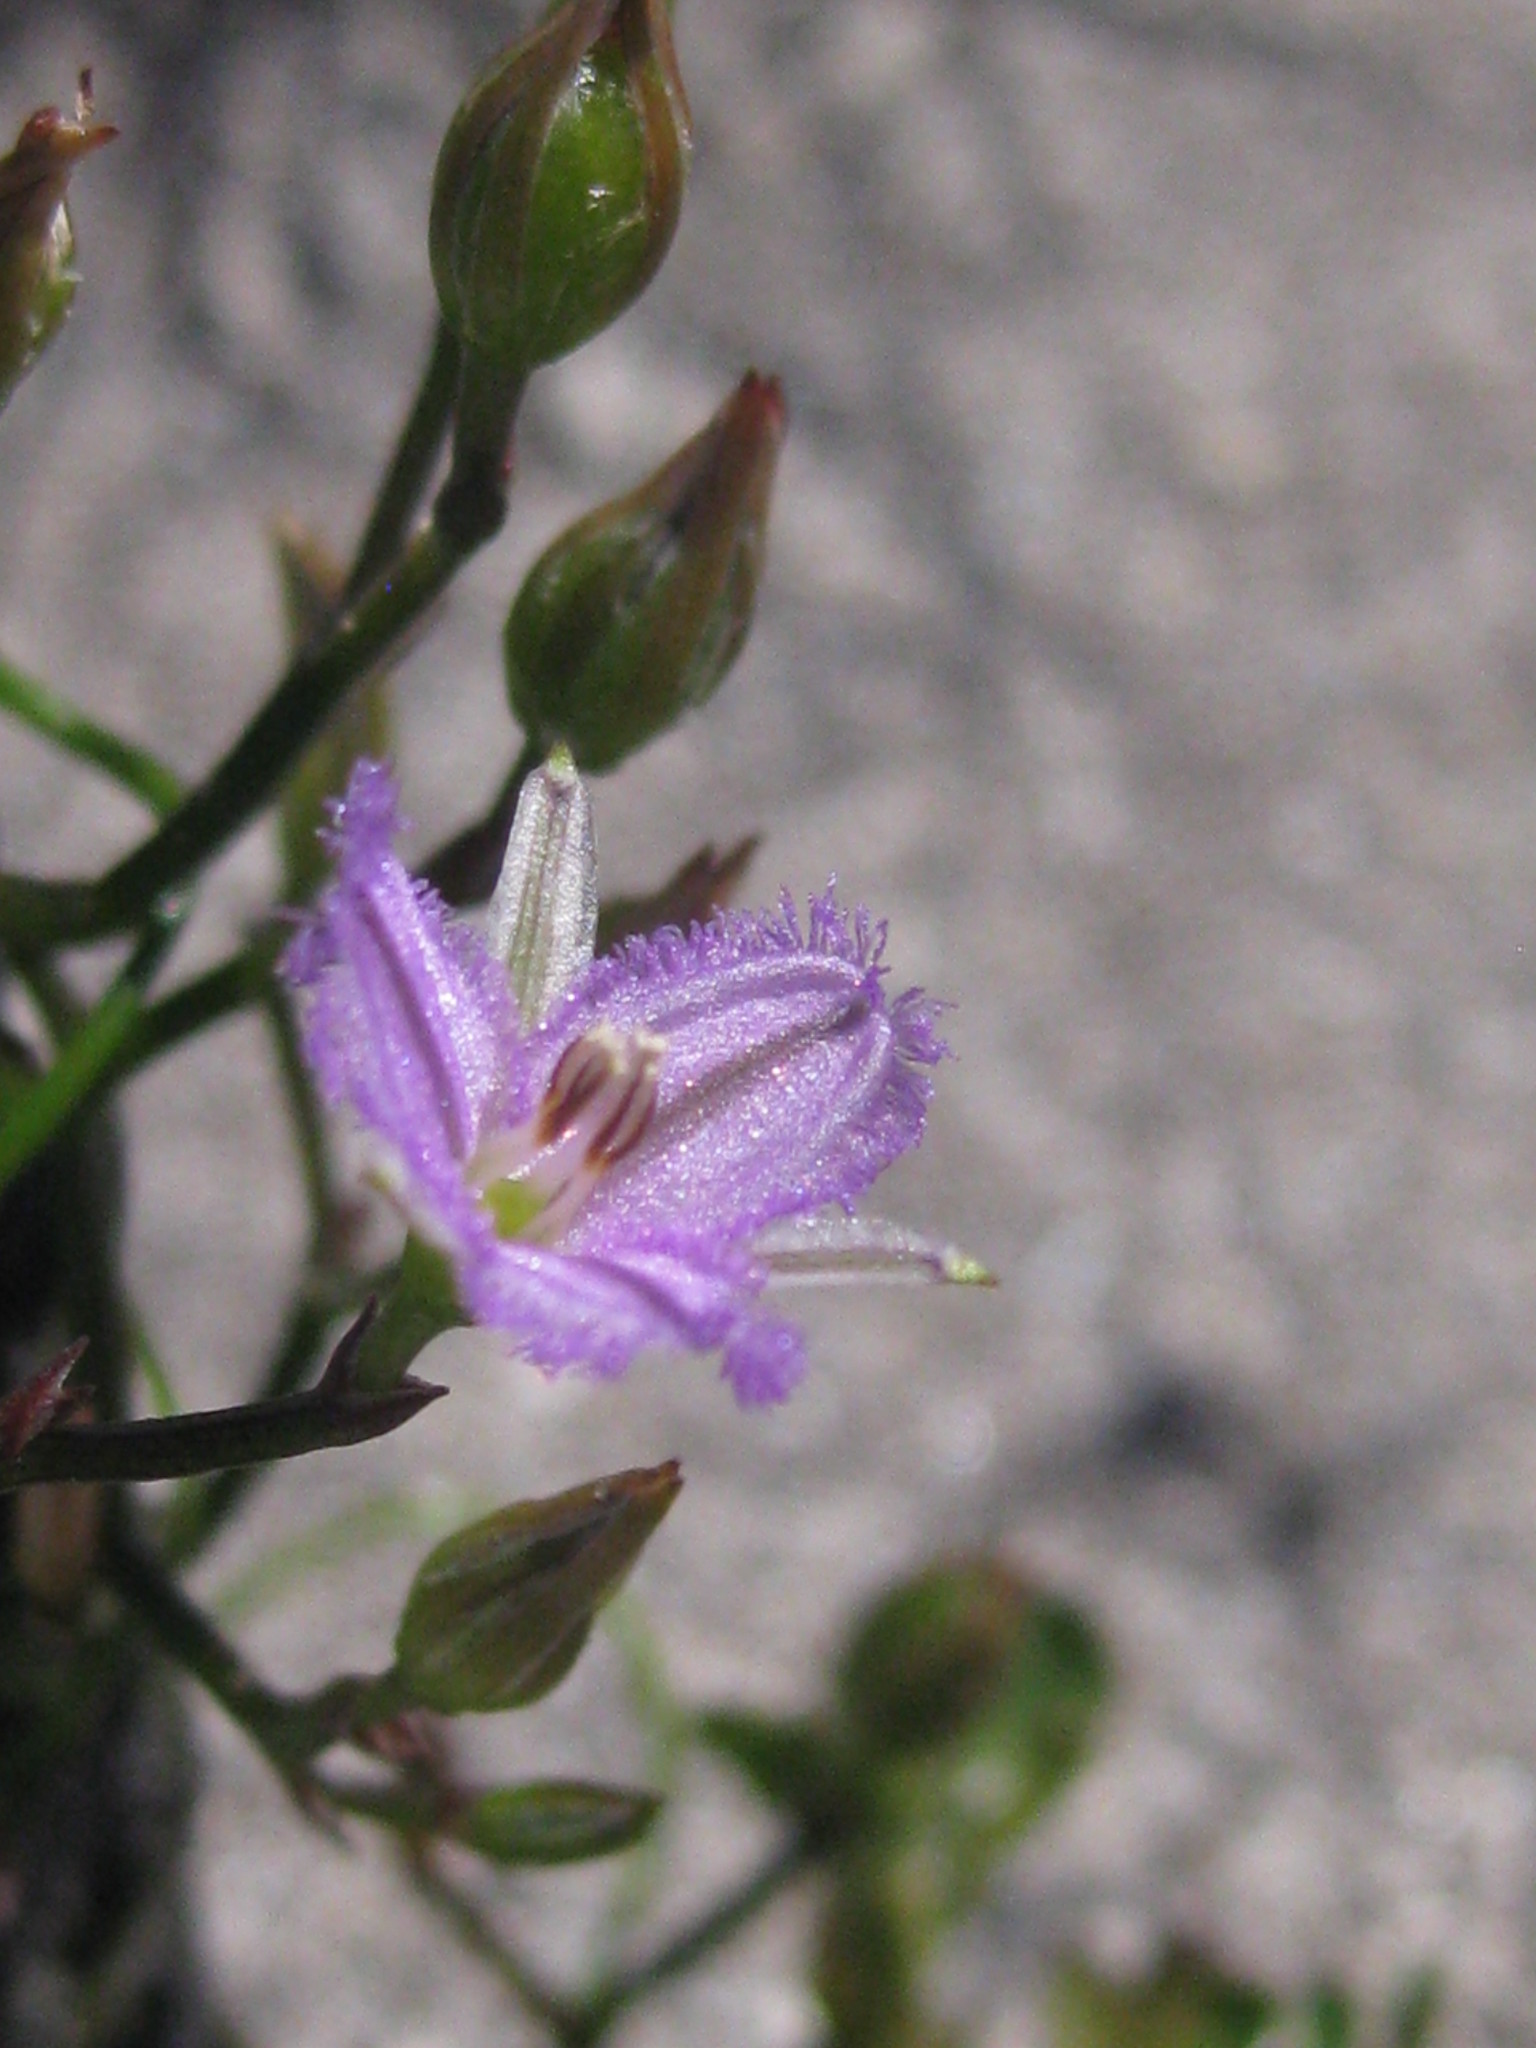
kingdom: Plantae
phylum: Tracheophyta
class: Liliopsida
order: Asparagales
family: Asparagaceae
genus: Thysanotus
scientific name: Thysanotus manglesianus
